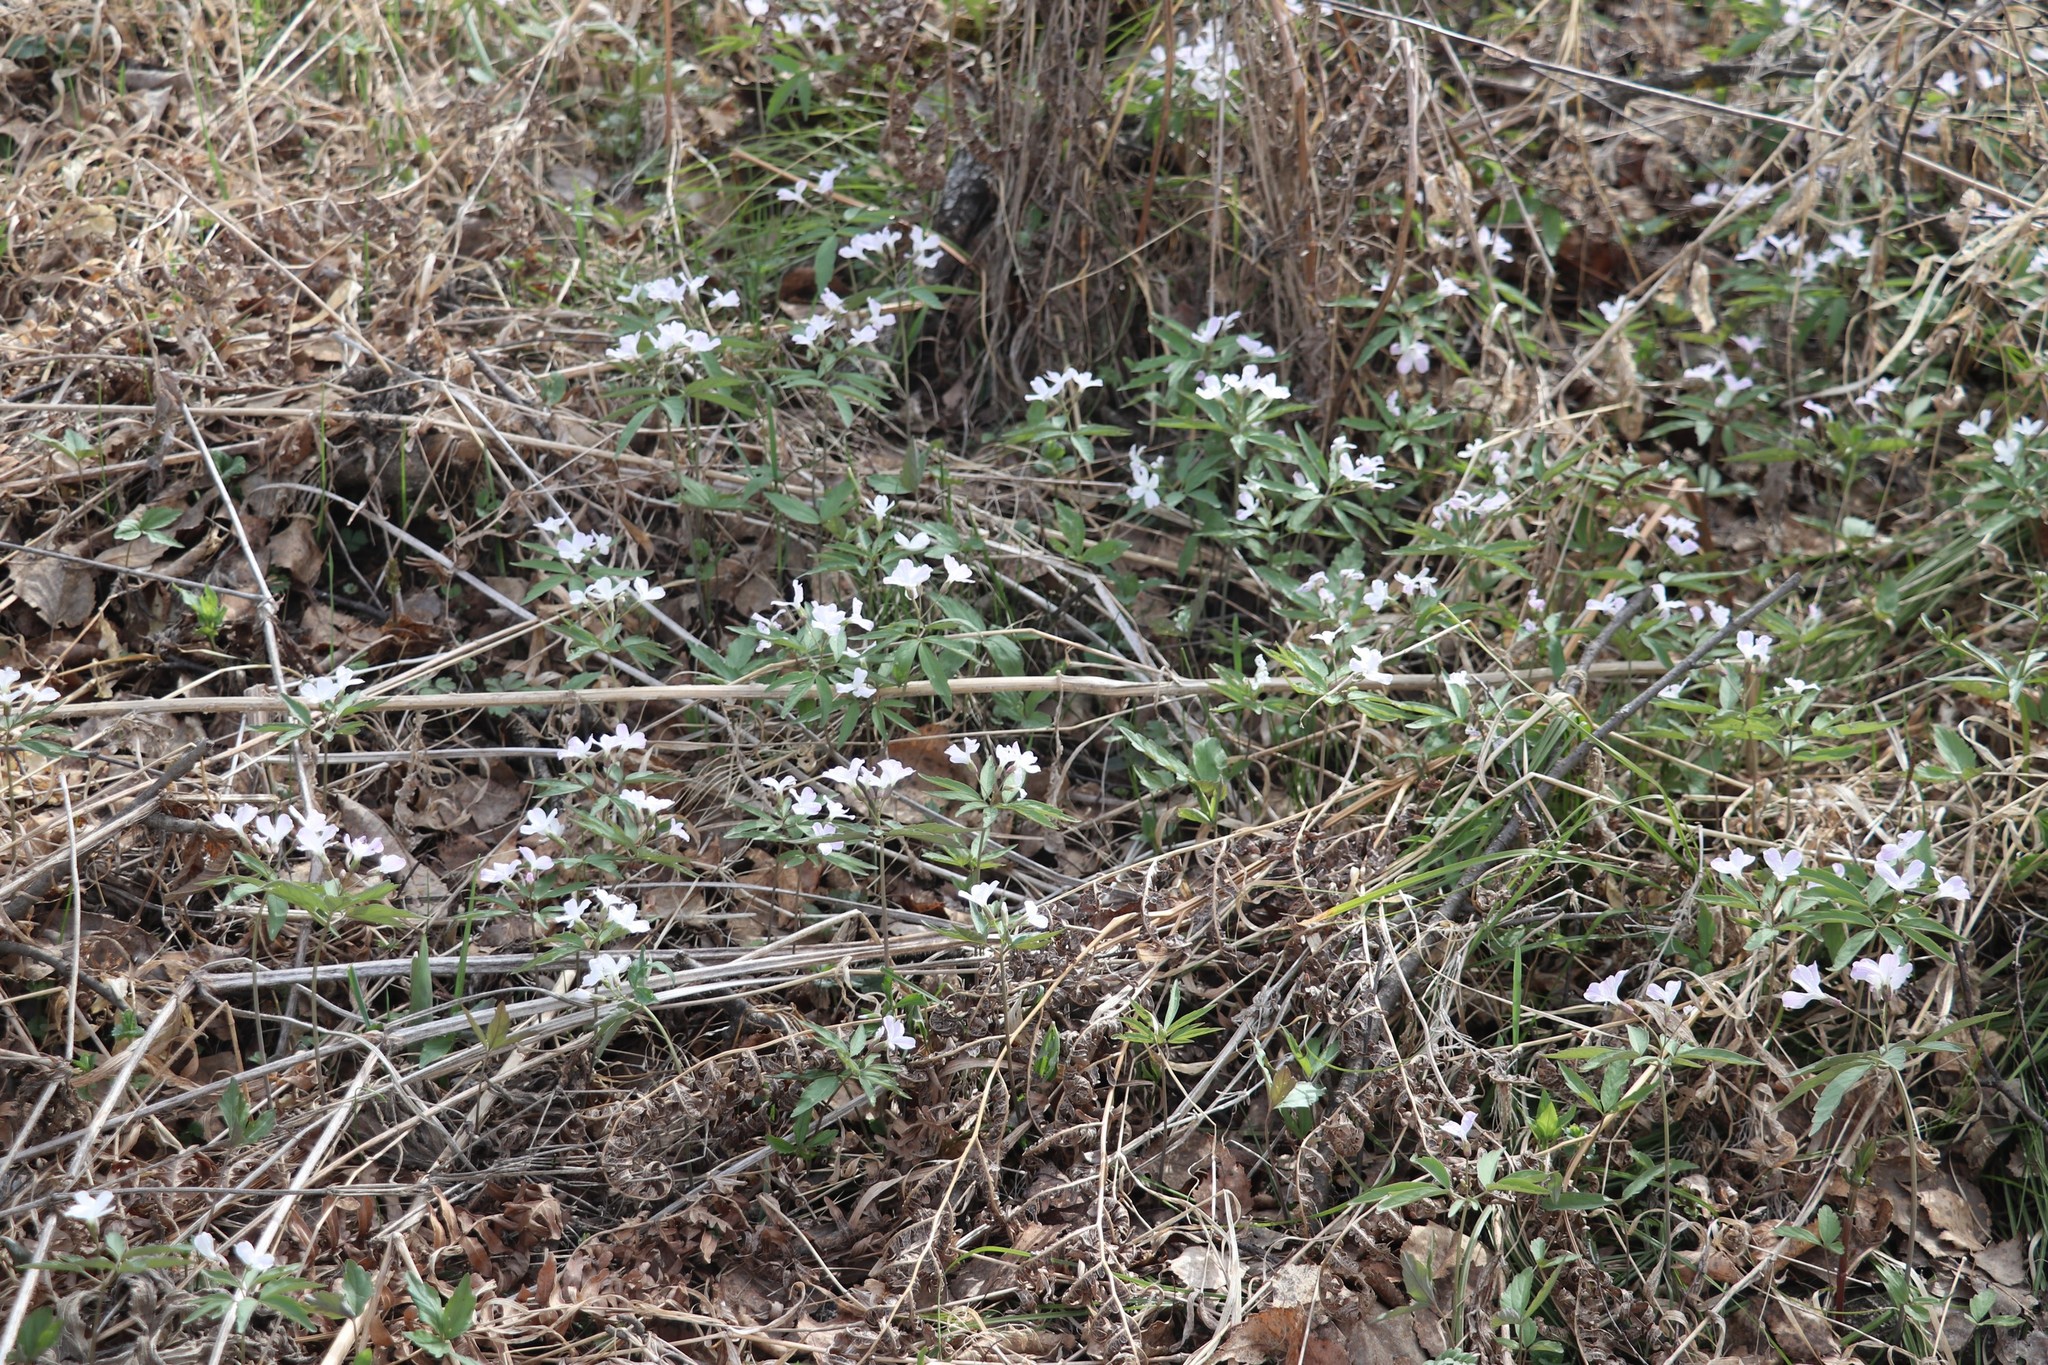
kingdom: Plantae
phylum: Tracheophyta
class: Magnoliopsida
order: Brassicales
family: Brassicaceae
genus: Cardamine
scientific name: Cardamine altaica
